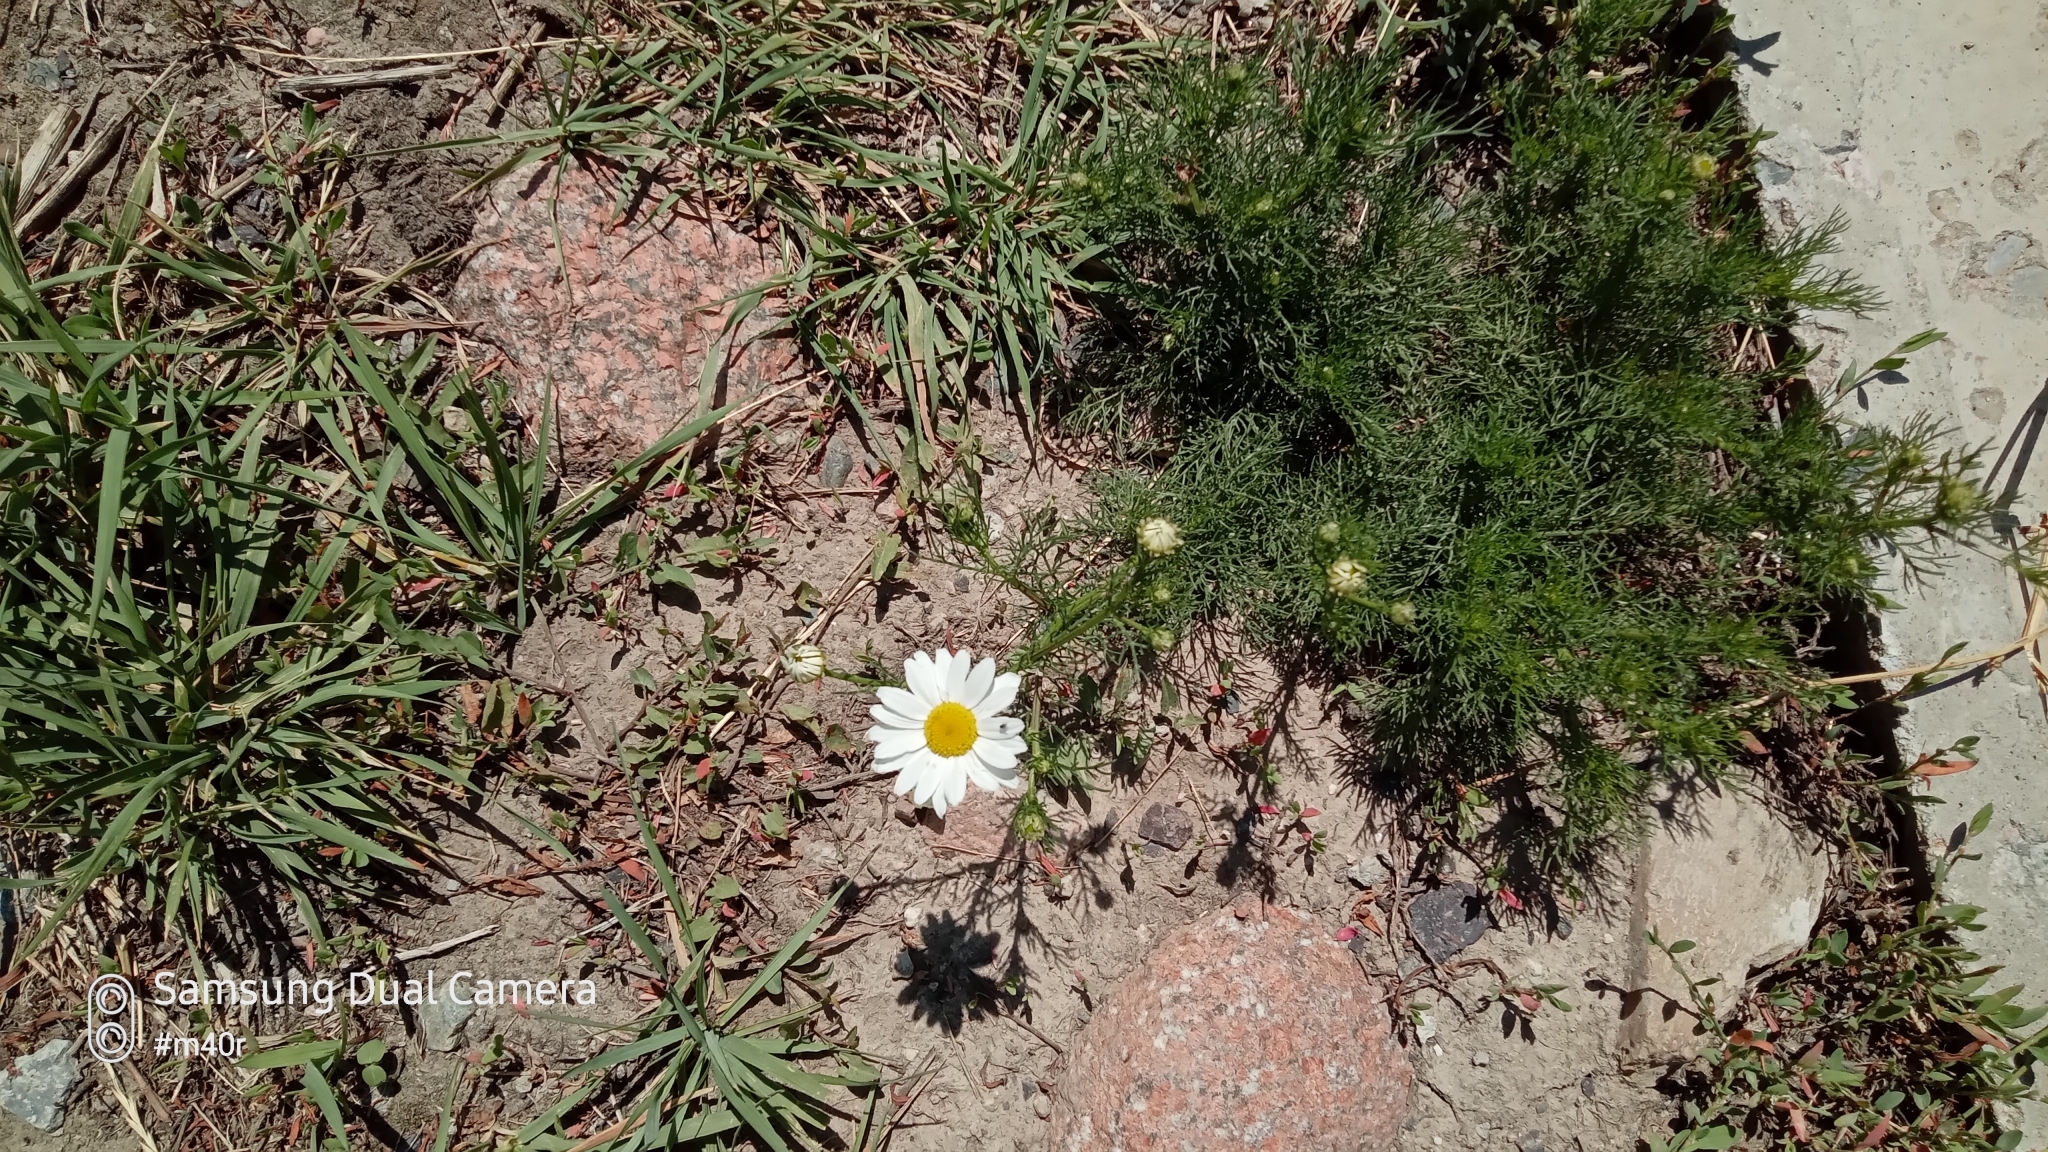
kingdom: Plantae
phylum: Tracheophyta
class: Magnoliopsida
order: Asterales
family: Asteraceae
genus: Tripleurospermum
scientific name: Tripleurospermum inodorum
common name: Scentless mayweed
